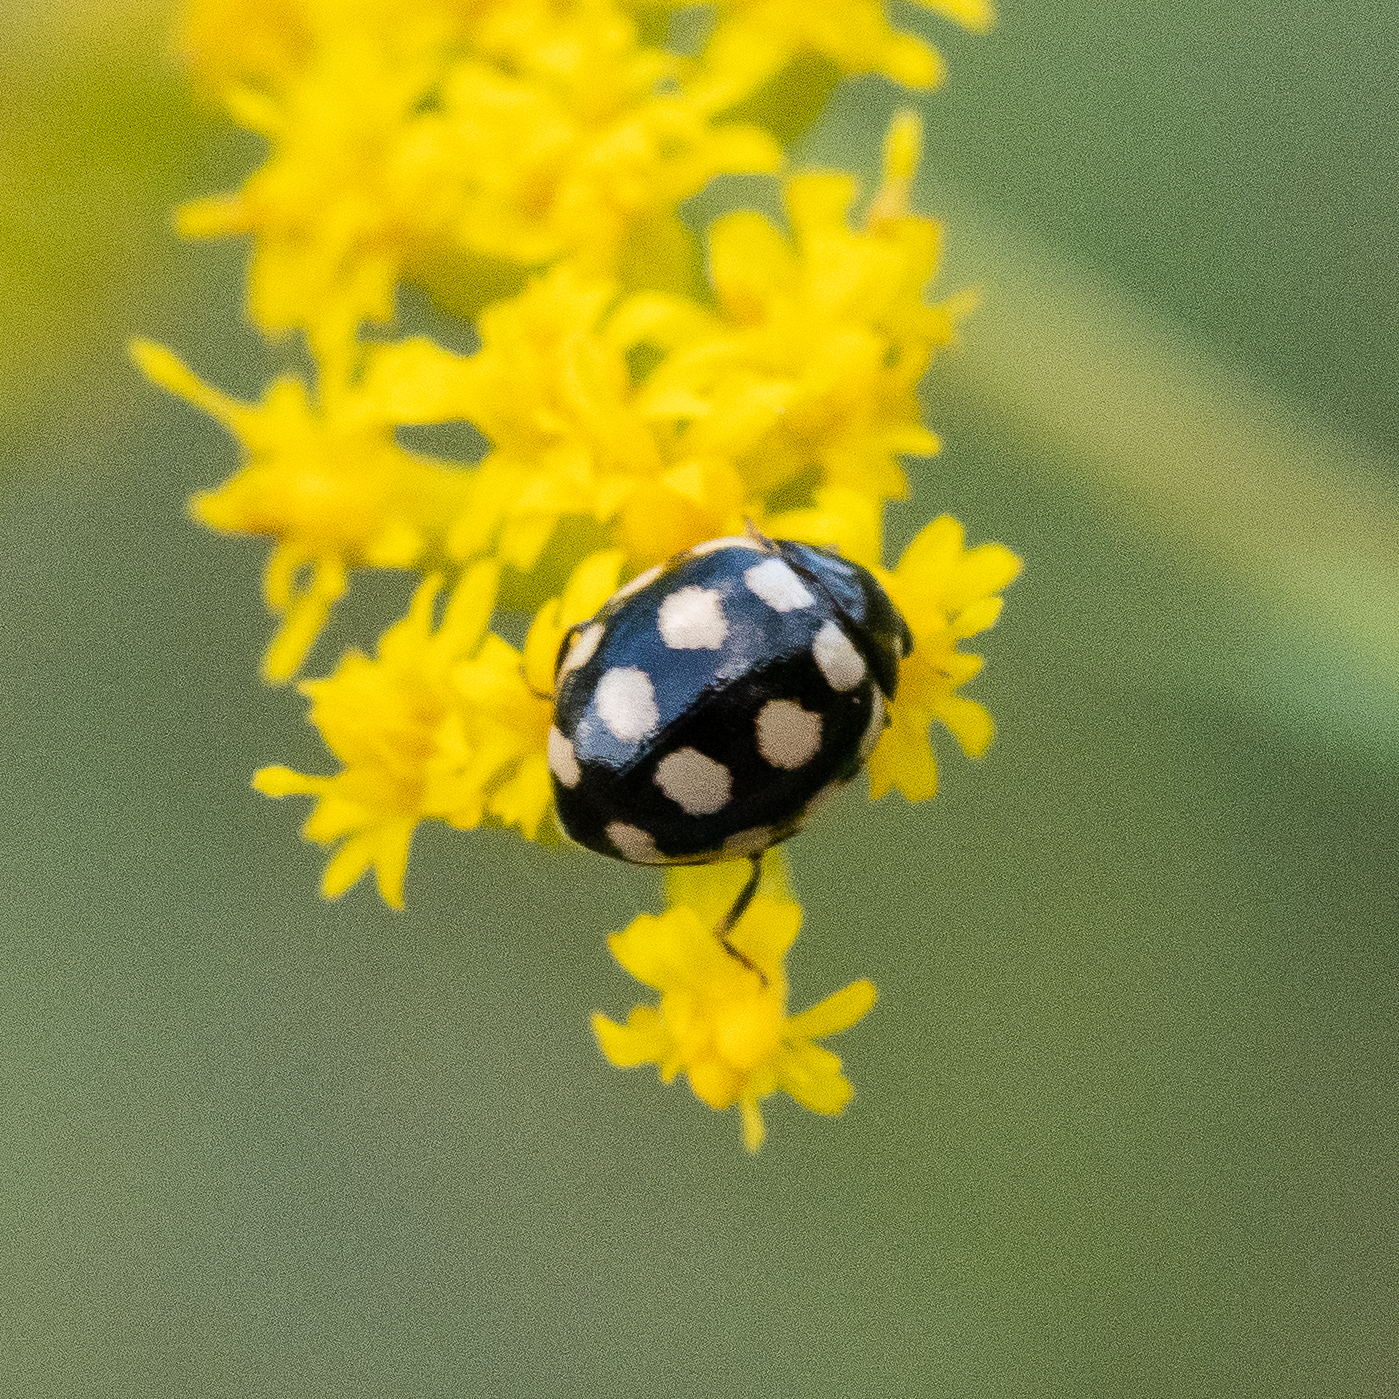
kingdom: Animalia
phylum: Arthropoda
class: Insecta
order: Coleoptera
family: Coccinellidae
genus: Coccinula
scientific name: Coccinula quatuordecimpustulata
